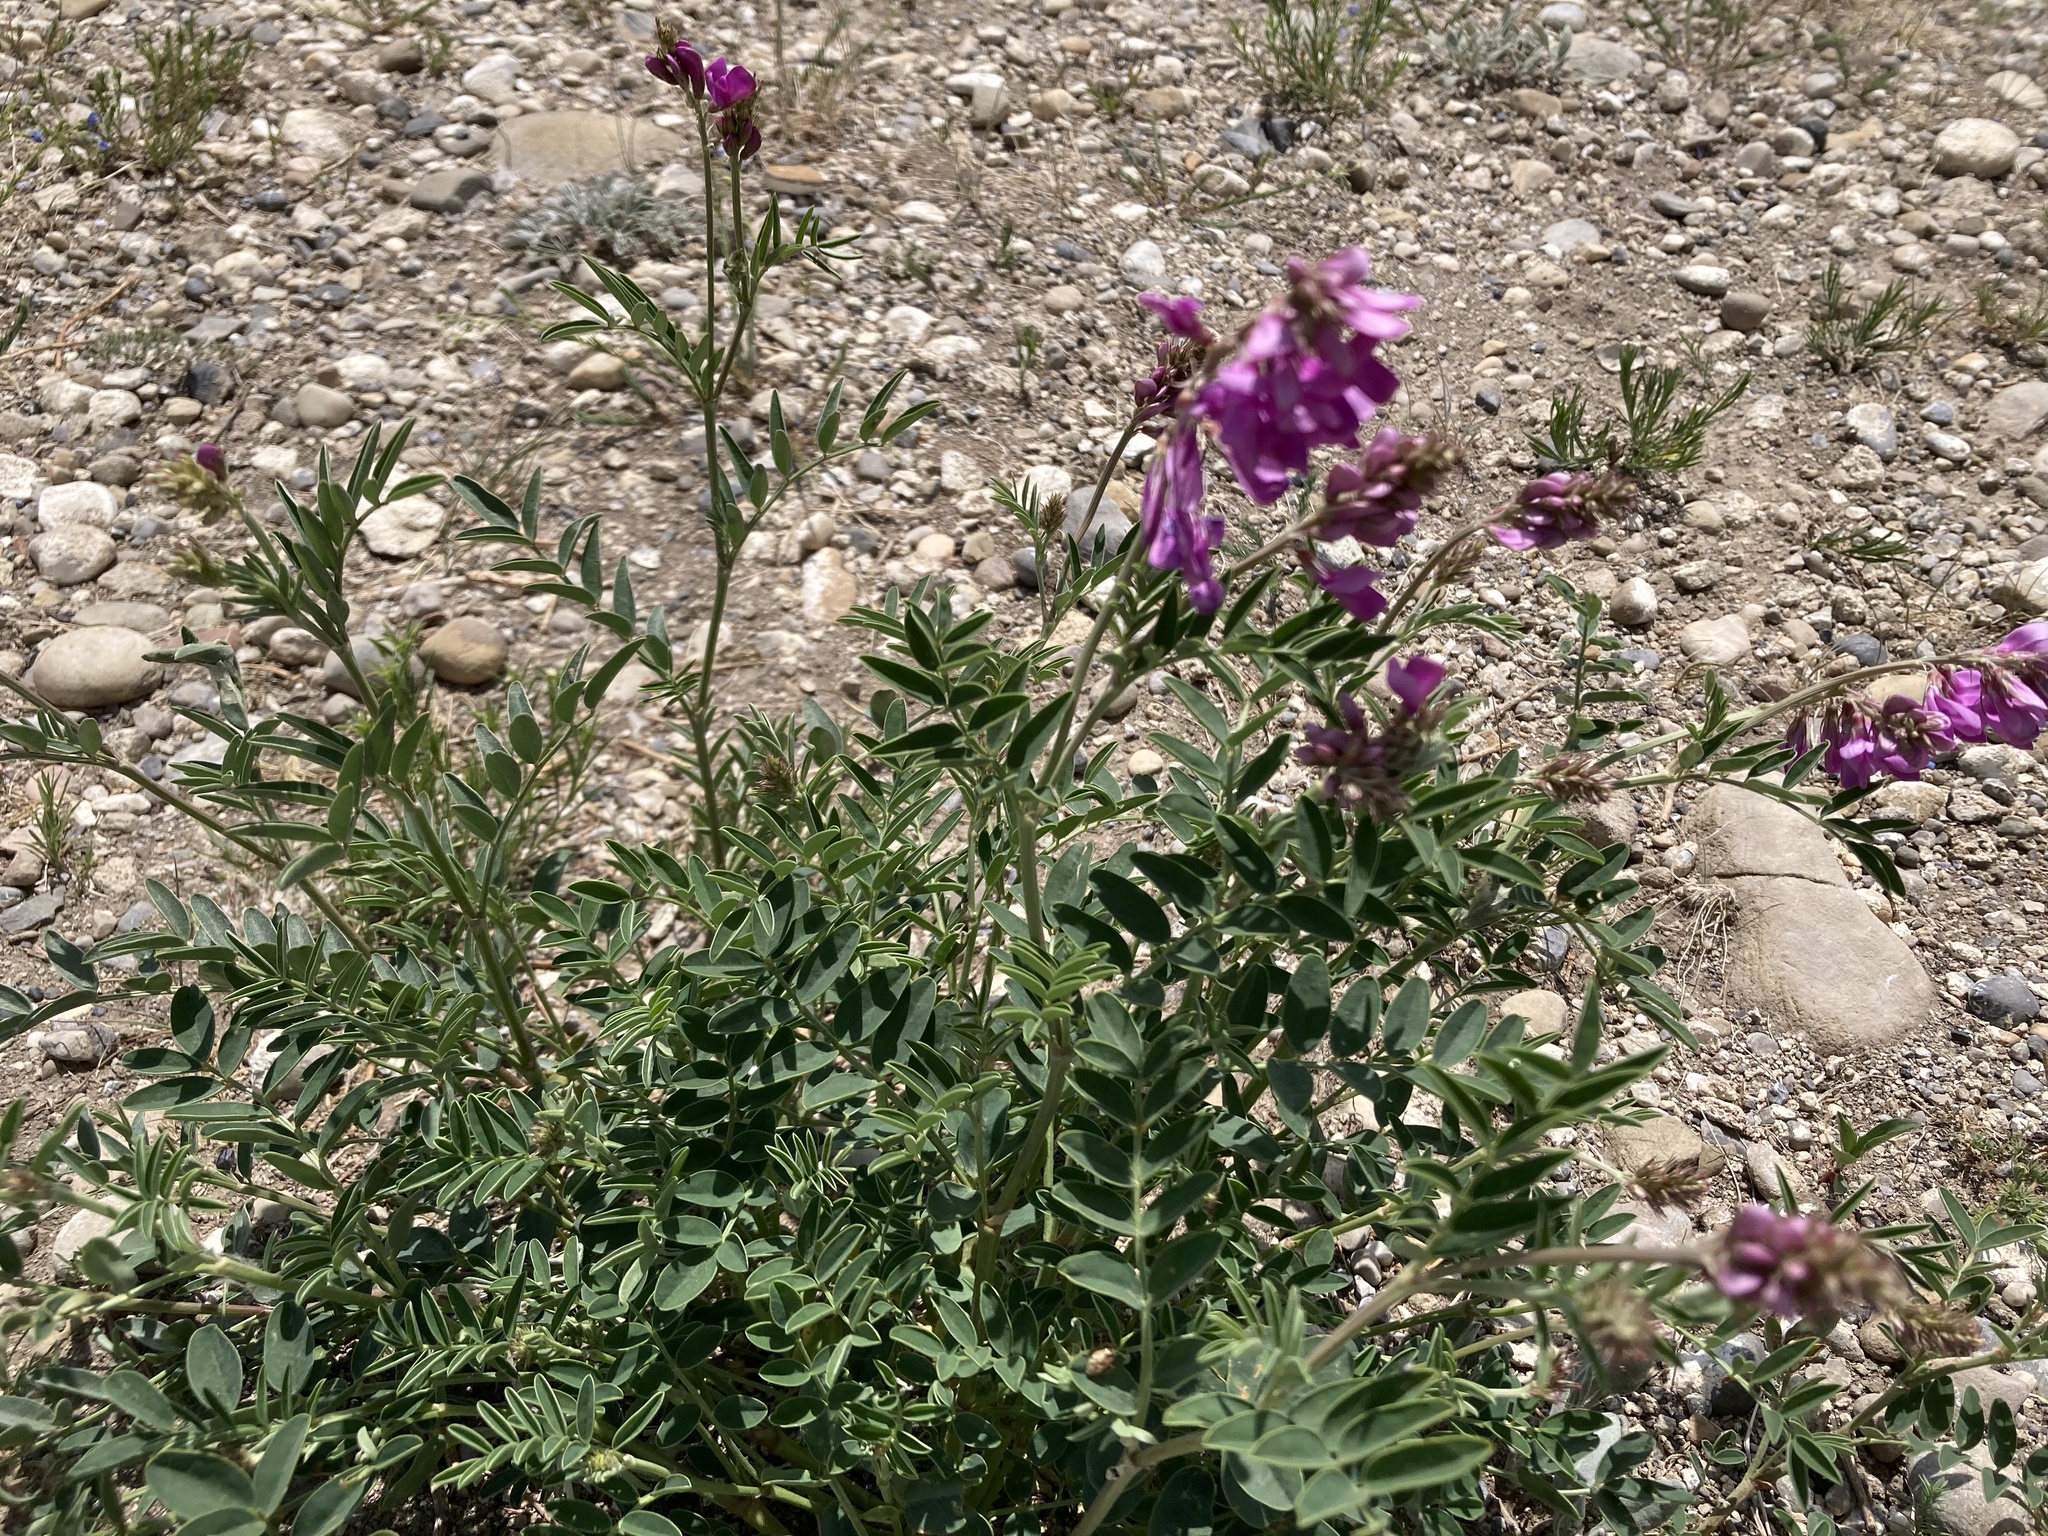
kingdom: Plantae
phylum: Tracheophyta
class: Magnoliopsida
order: Fabales
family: Fabaceae
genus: Hedysarum
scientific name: Hedysarum boreale
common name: Northern sweet-vetch
